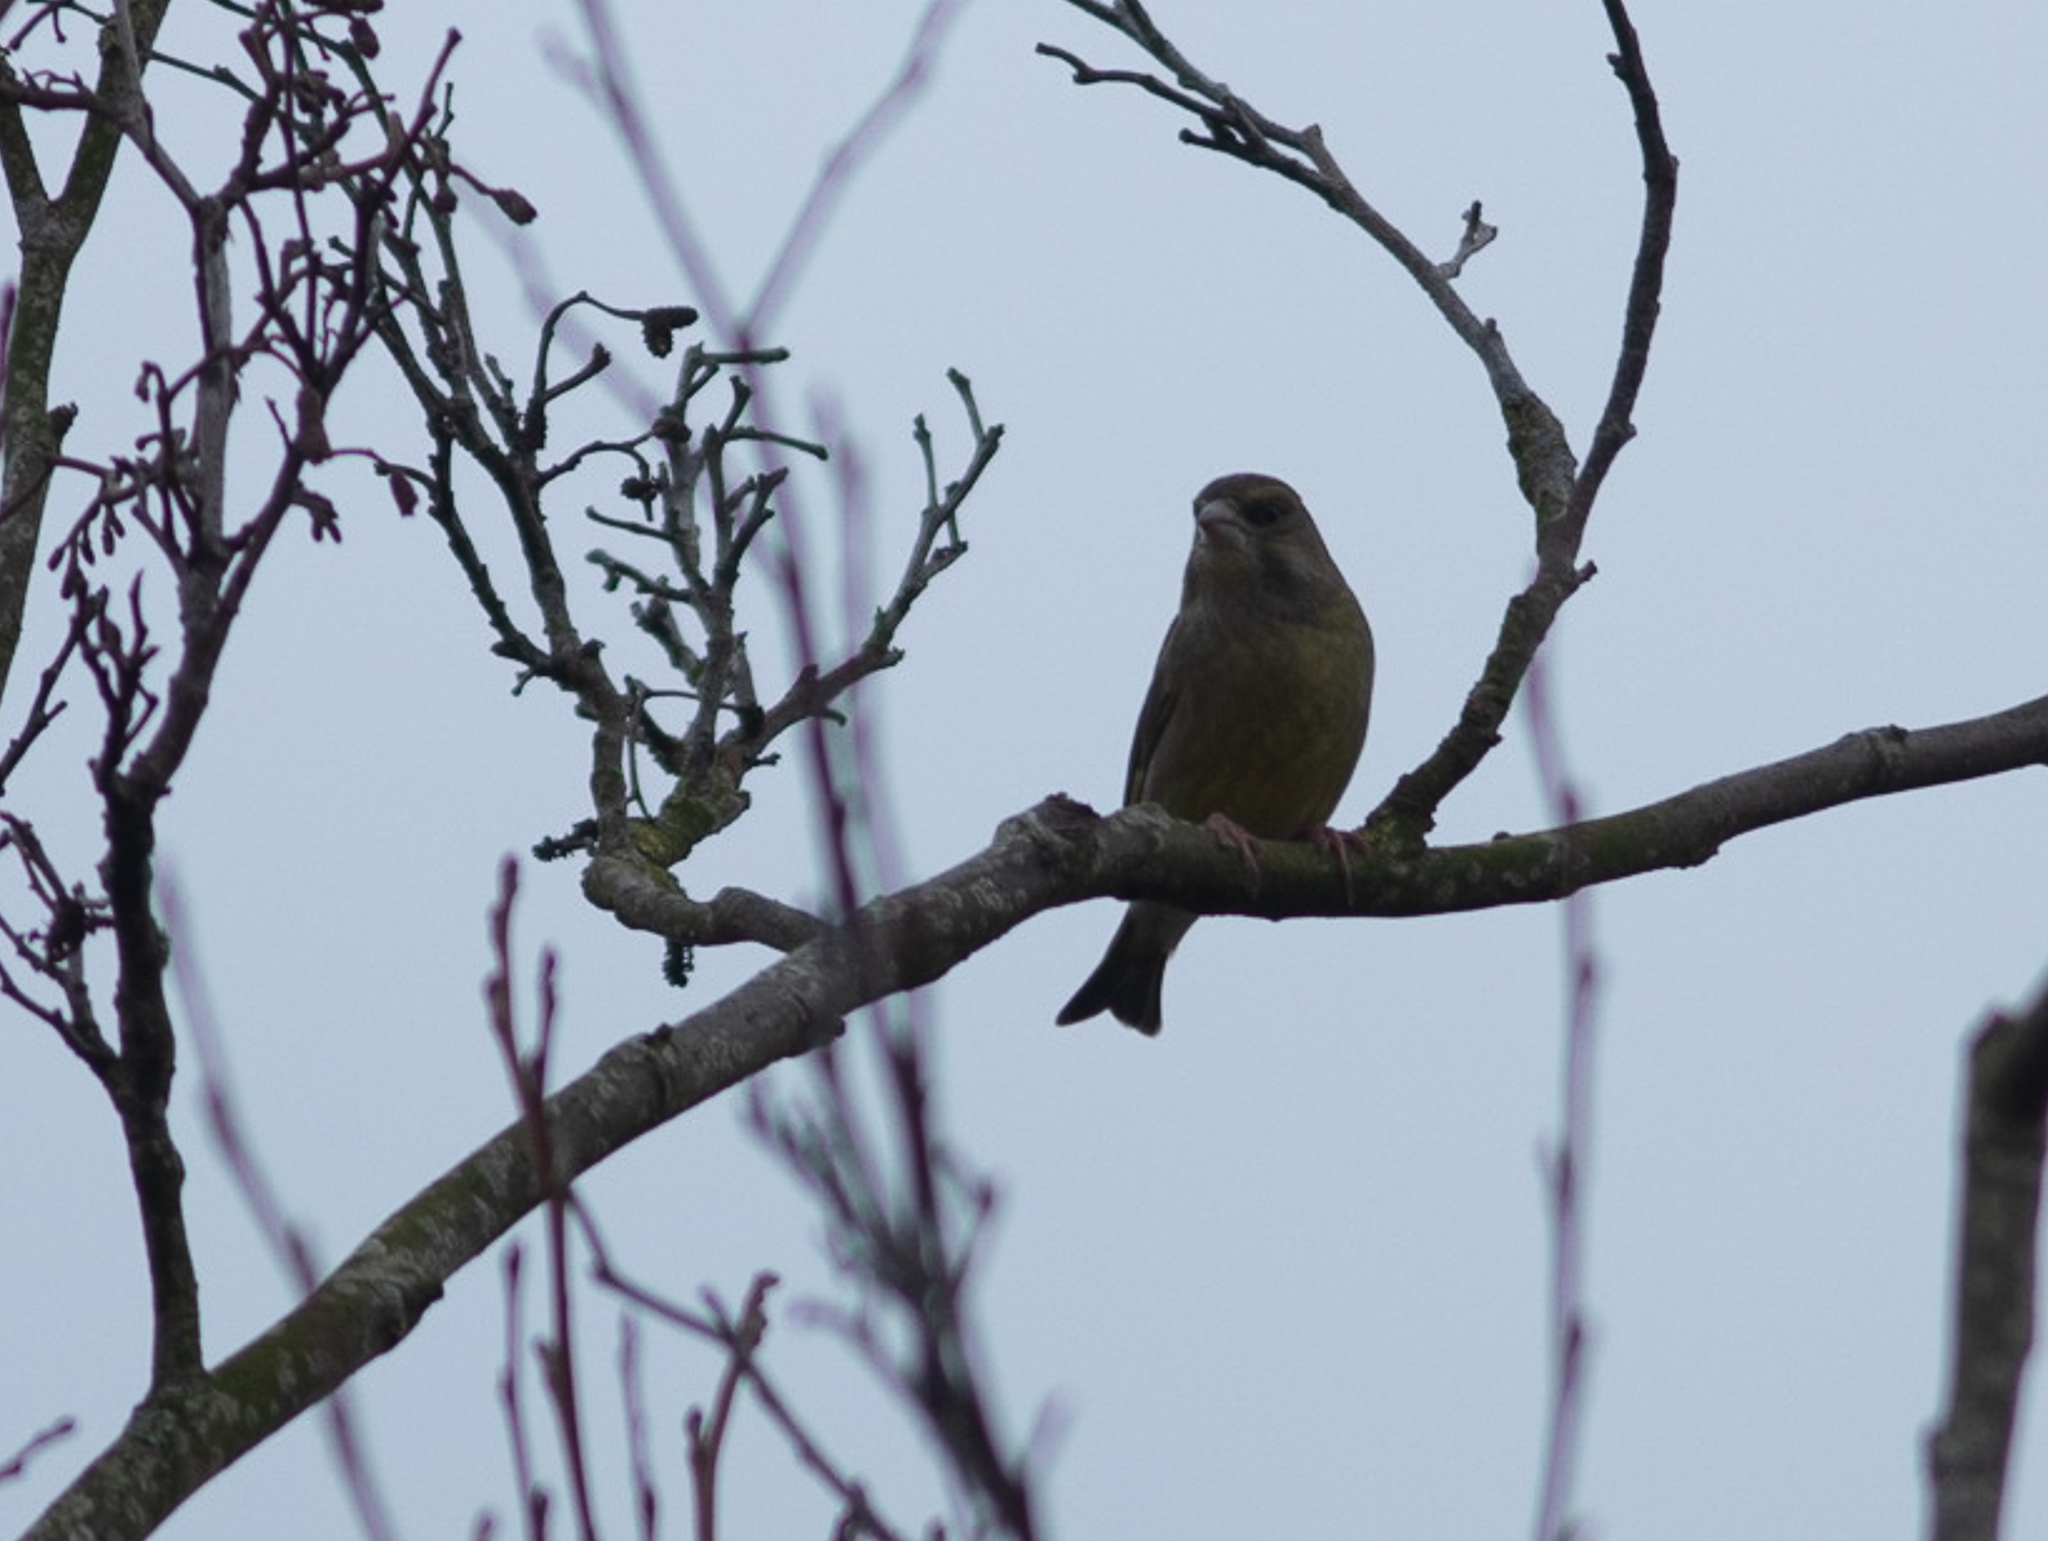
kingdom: Plantae
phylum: Tracheophyta
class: Liliopsida
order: Poales
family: Poaceae
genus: Chloris
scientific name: Chloris chloris
